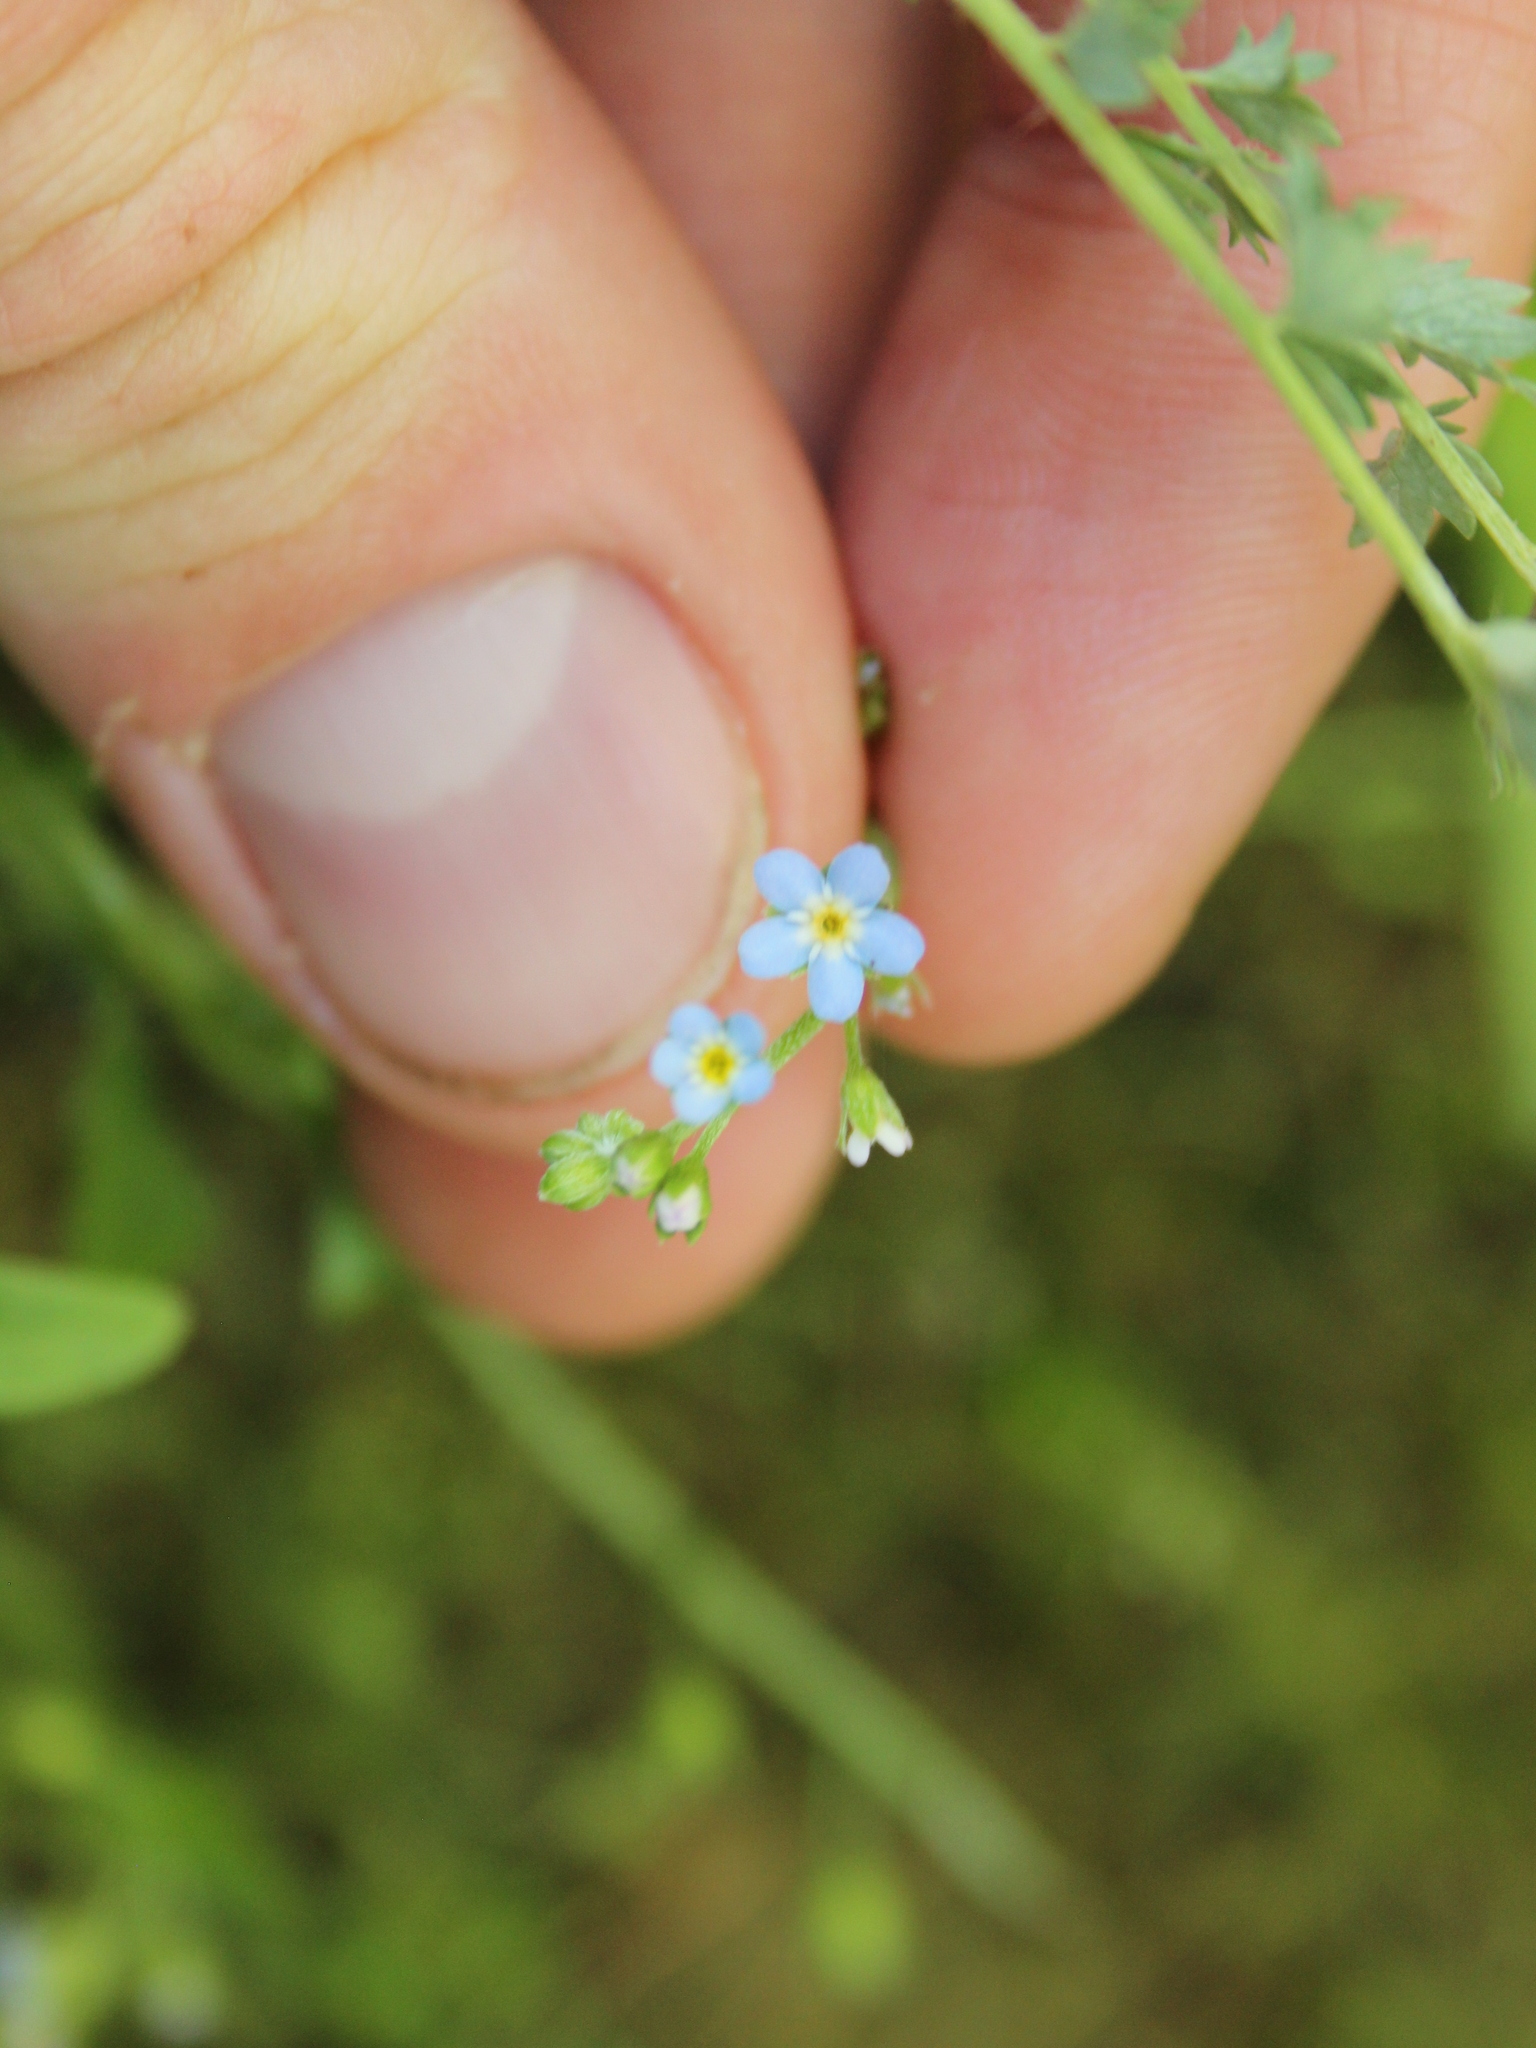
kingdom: Plantae
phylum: Tracheophyta
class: Magnoliopsida
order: Boraginales
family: Boraginaceae
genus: Myosotis
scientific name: Myosotis laxa
